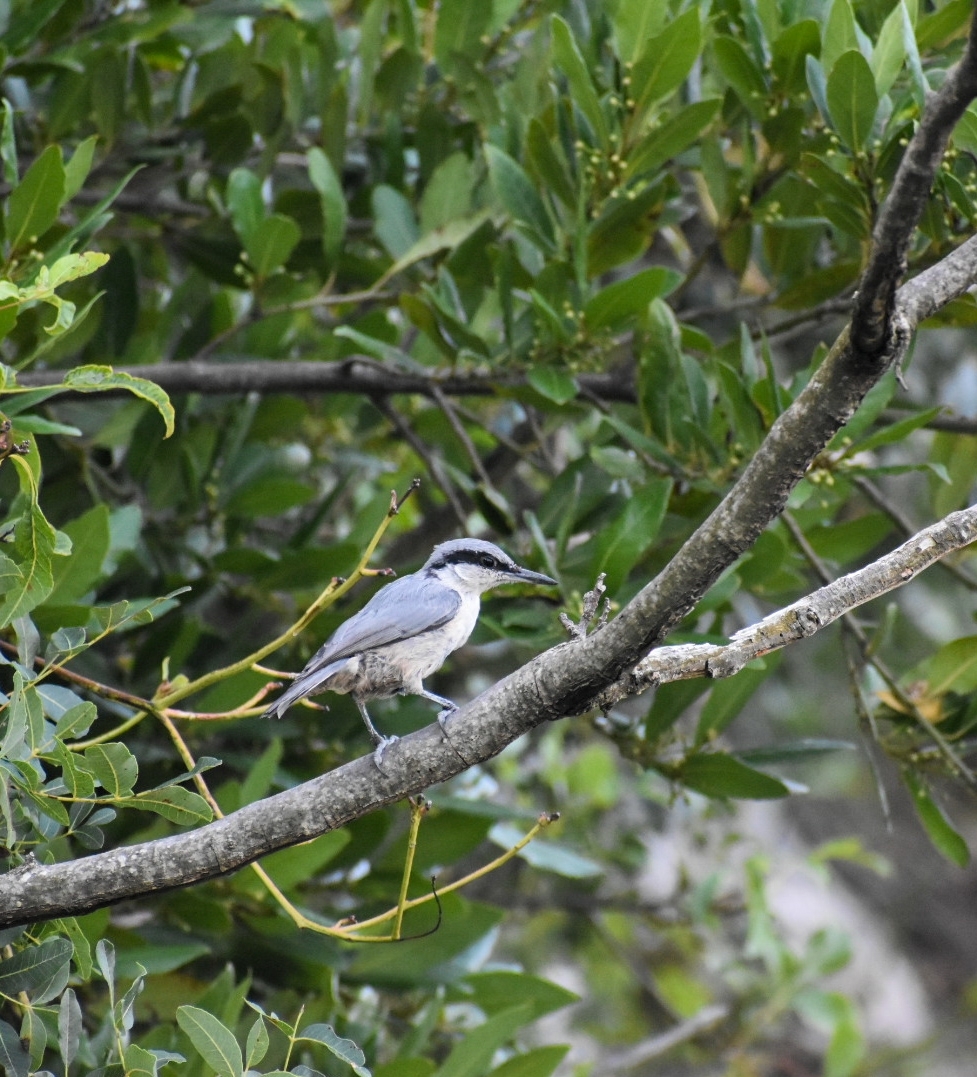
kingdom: Animalia
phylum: Chordata
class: Aves
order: Passeriformes
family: Sittidae
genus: Sitta
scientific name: Sitta neumayer
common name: Western rock nuthatch
